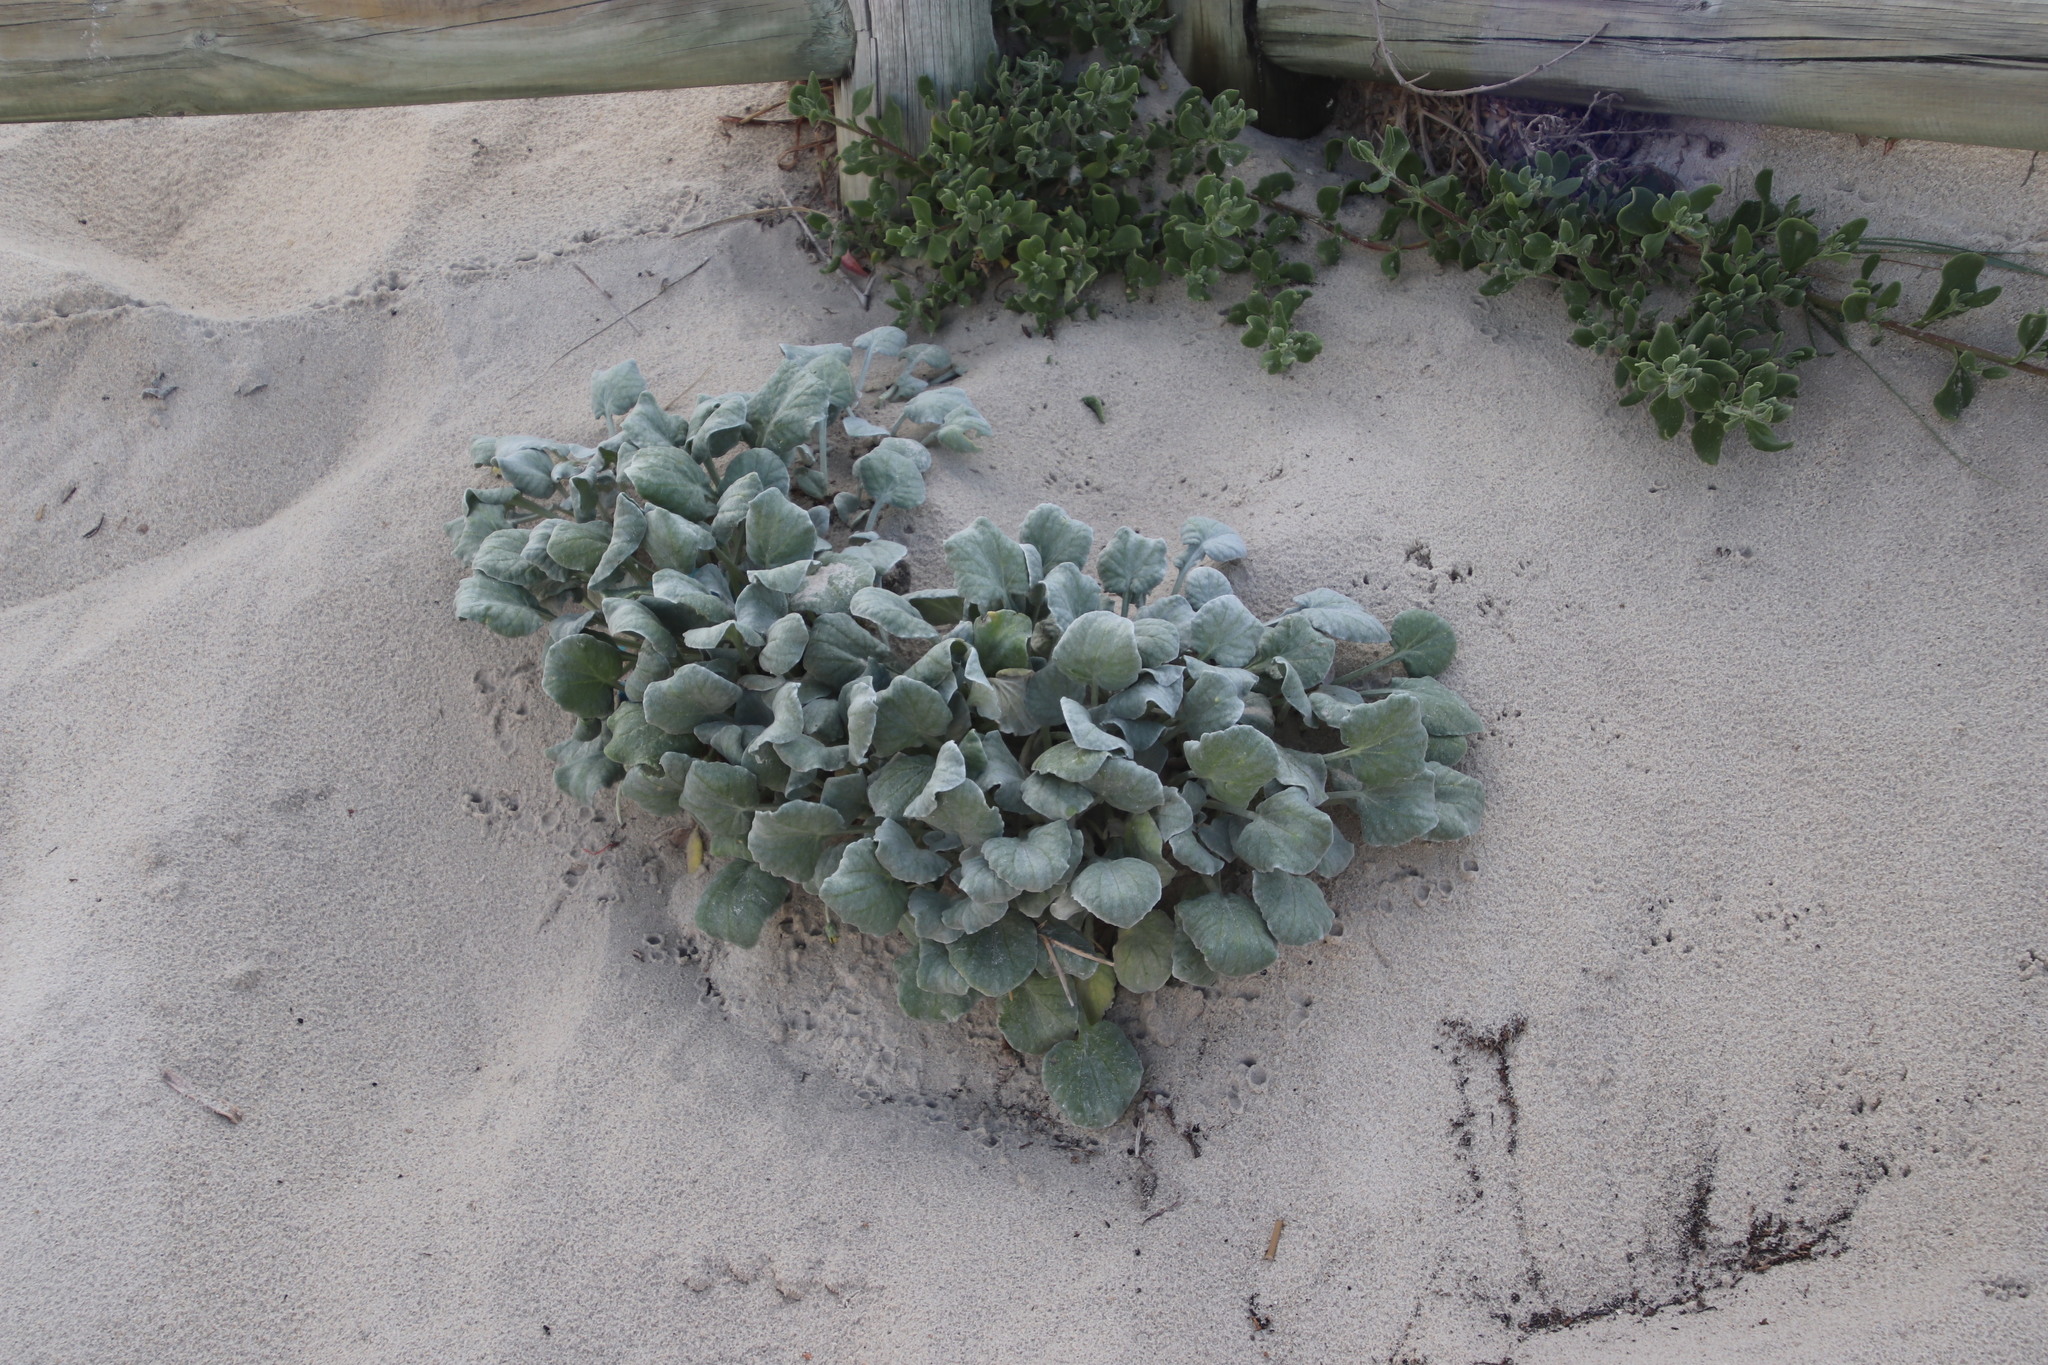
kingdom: Plantae
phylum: Tracheophyta
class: Magnoliopsida
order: Asterales
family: Asteraceae
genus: Arctotheca
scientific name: Arctotheca populifolia
